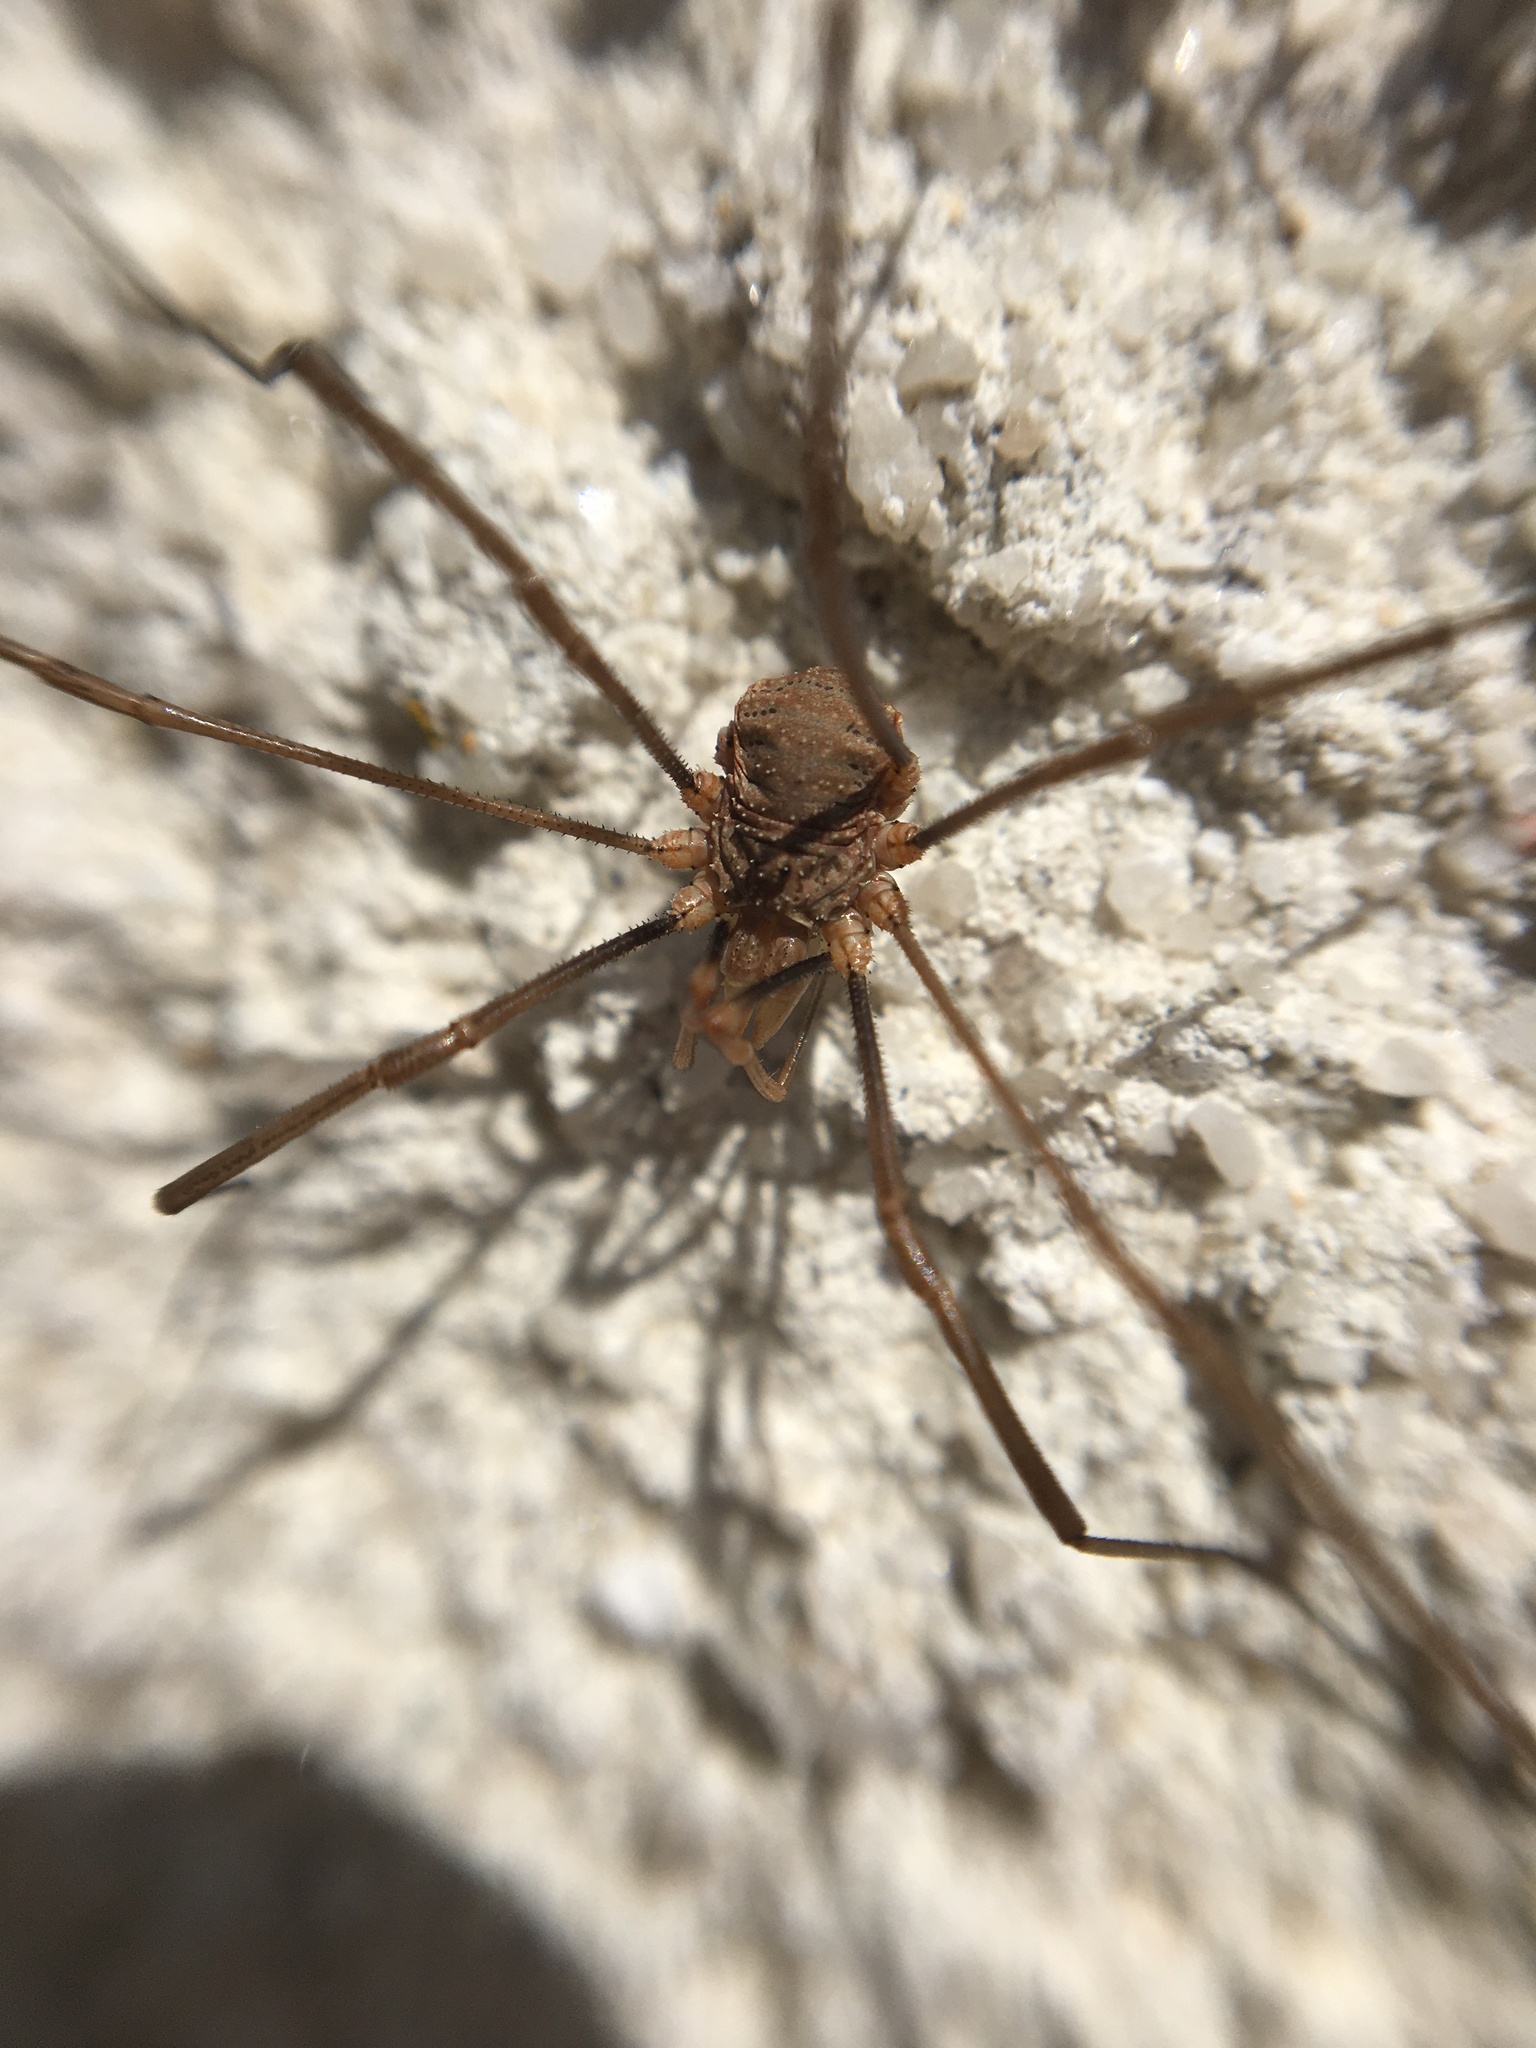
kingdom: Animalia
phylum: Arthropoda
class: Arachnida
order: Opiliones
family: Phalangiidae
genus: Phalangium
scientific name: Phalangium opilio
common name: Daddy longleg
